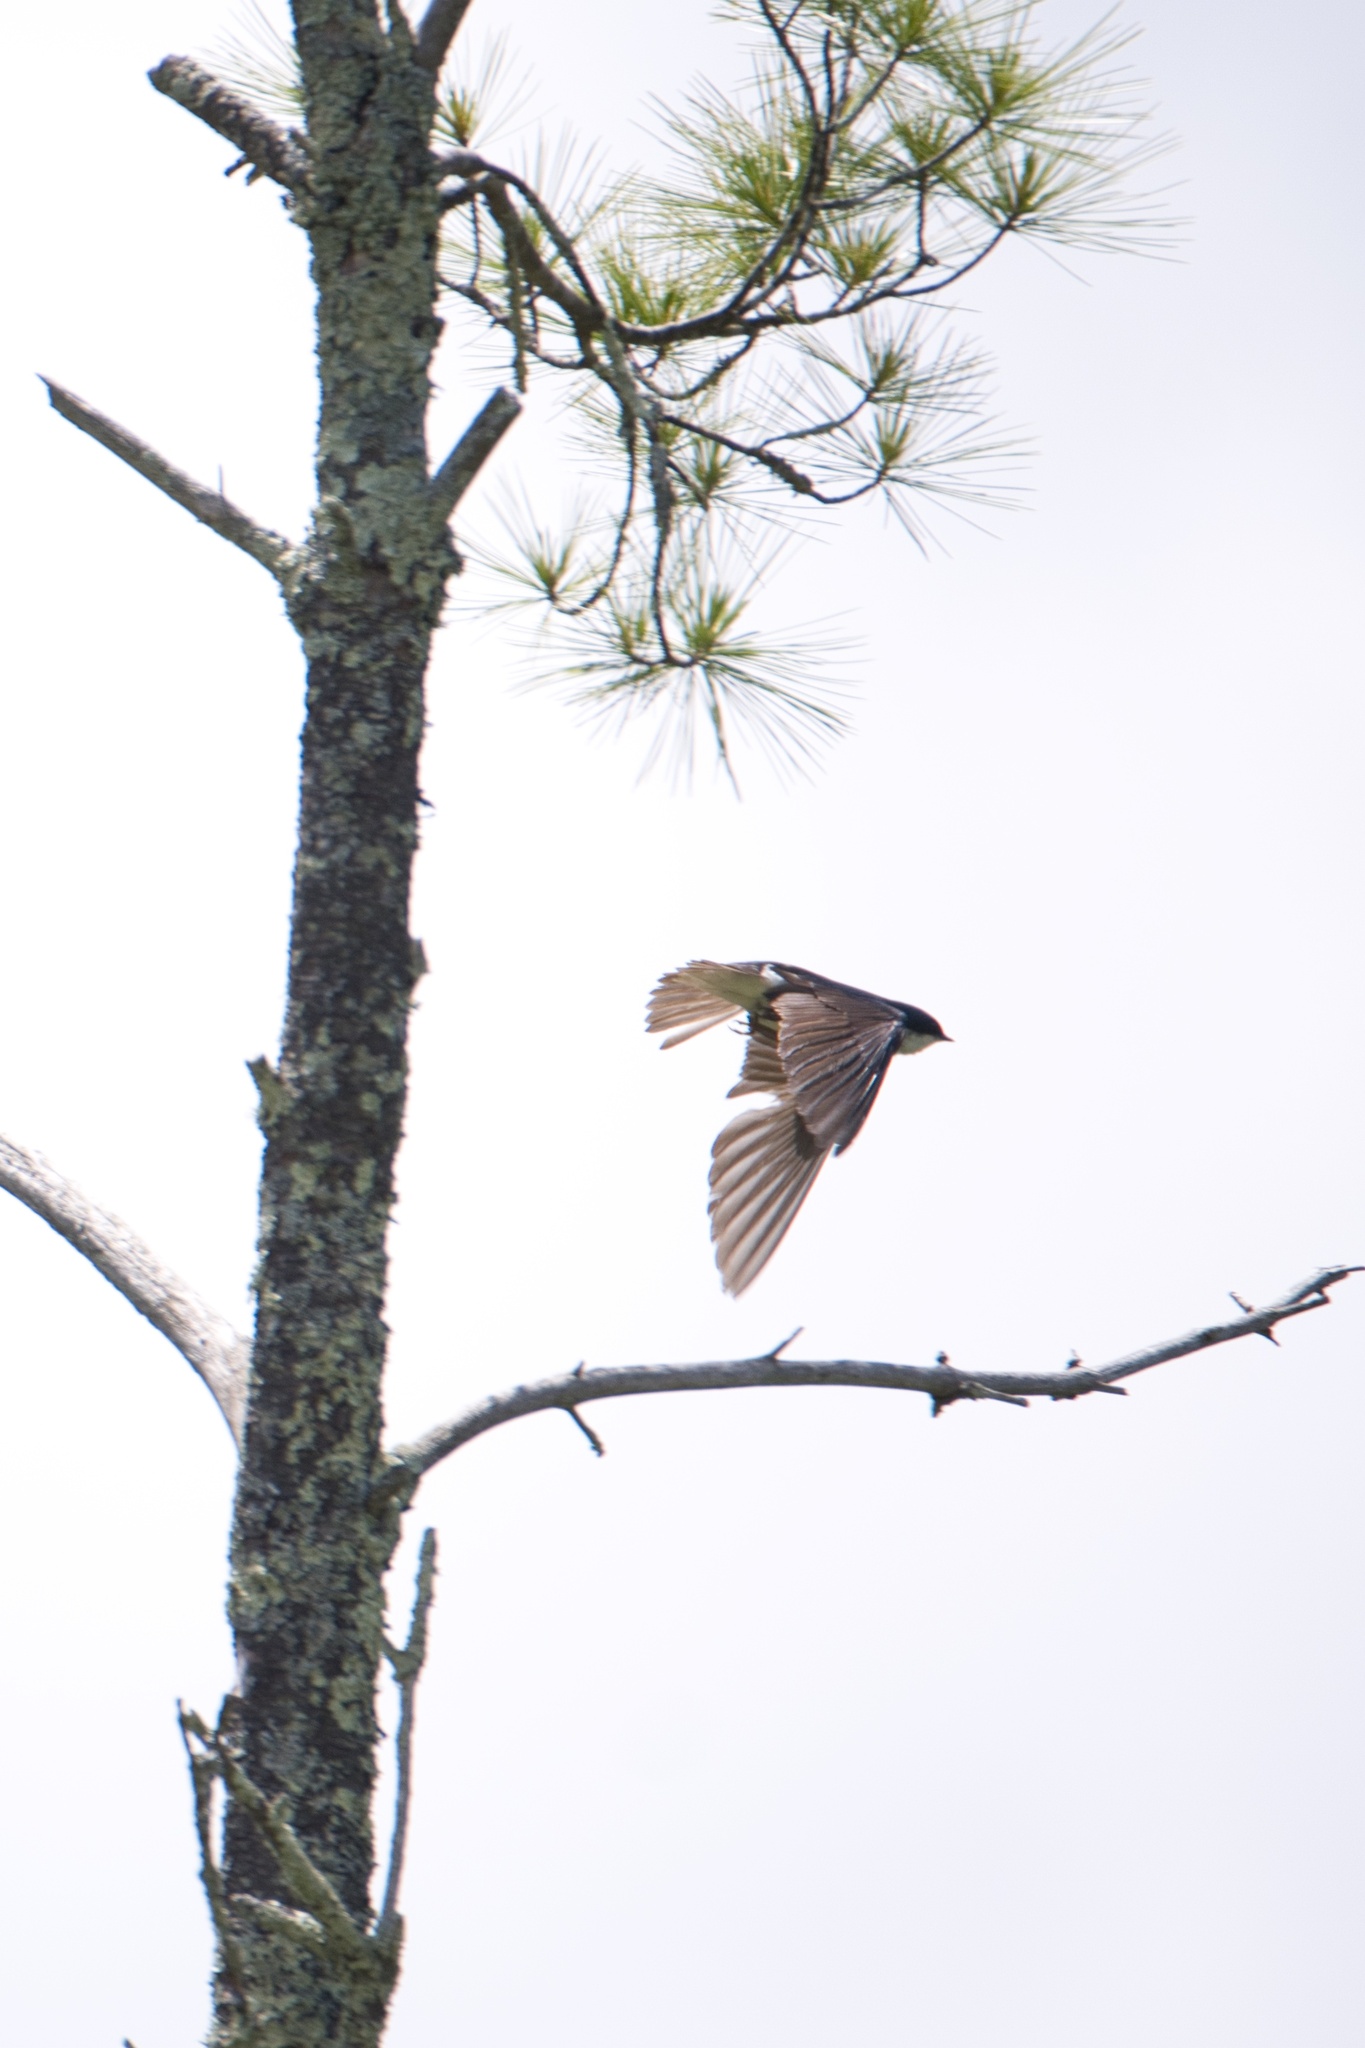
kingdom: Animalia
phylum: Chordata
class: Aves
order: Passeriformes
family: Hirundinidae
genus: Tachycineta
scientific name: Tachycineta bicolor
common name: Tree swallow
